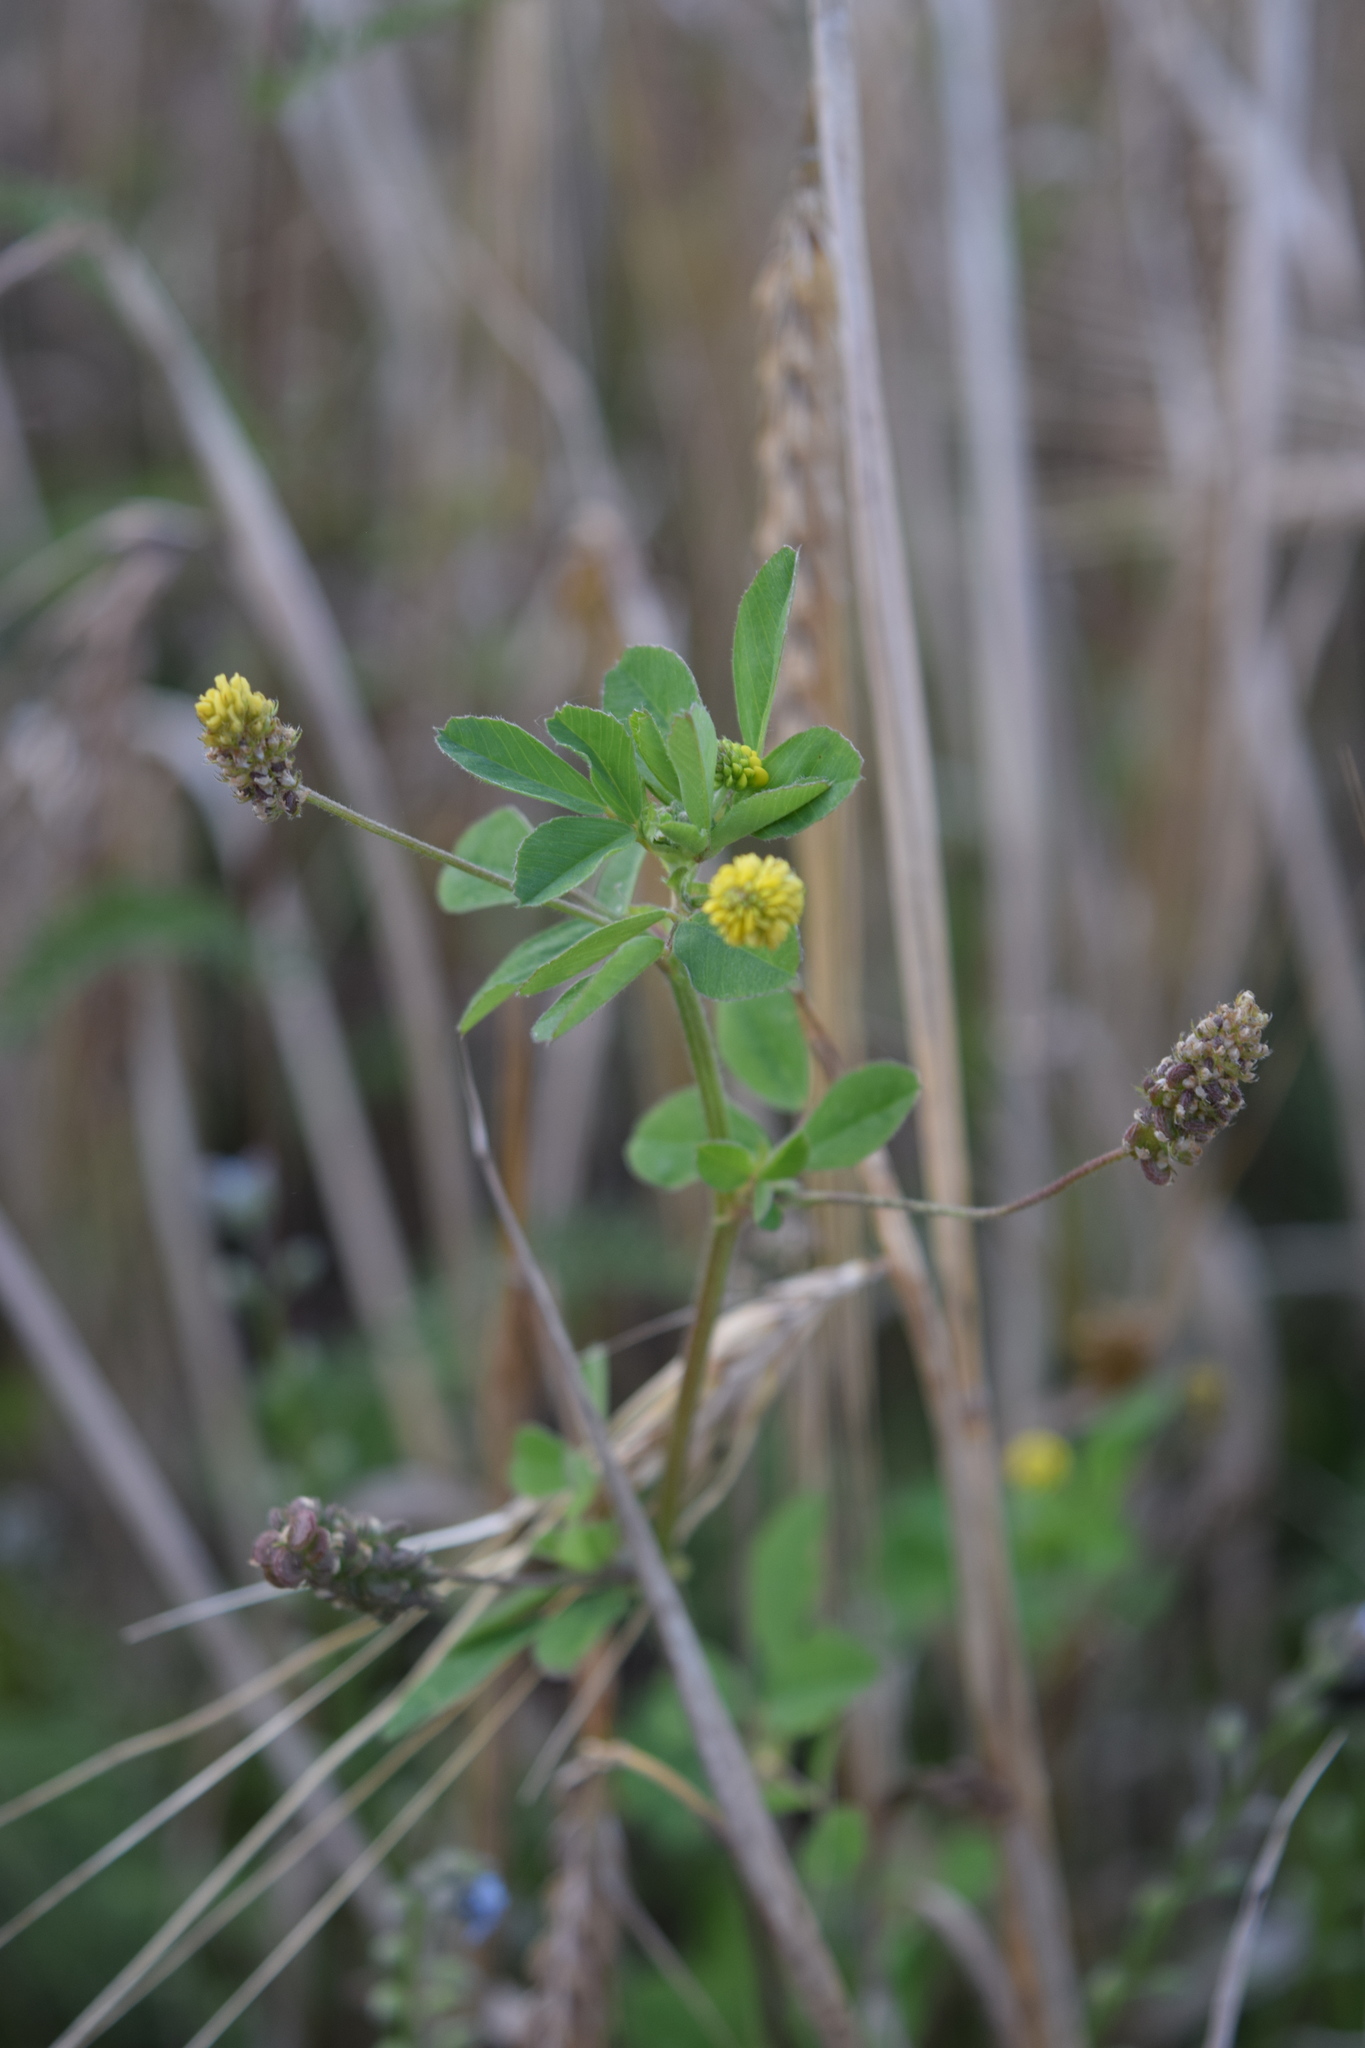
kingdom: Plantae
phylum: Tracheophyta
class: Magnoliopsida
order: Fabales
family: Fabaceae
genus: Medicago
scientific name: Medicago lupulina
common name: Black medick
